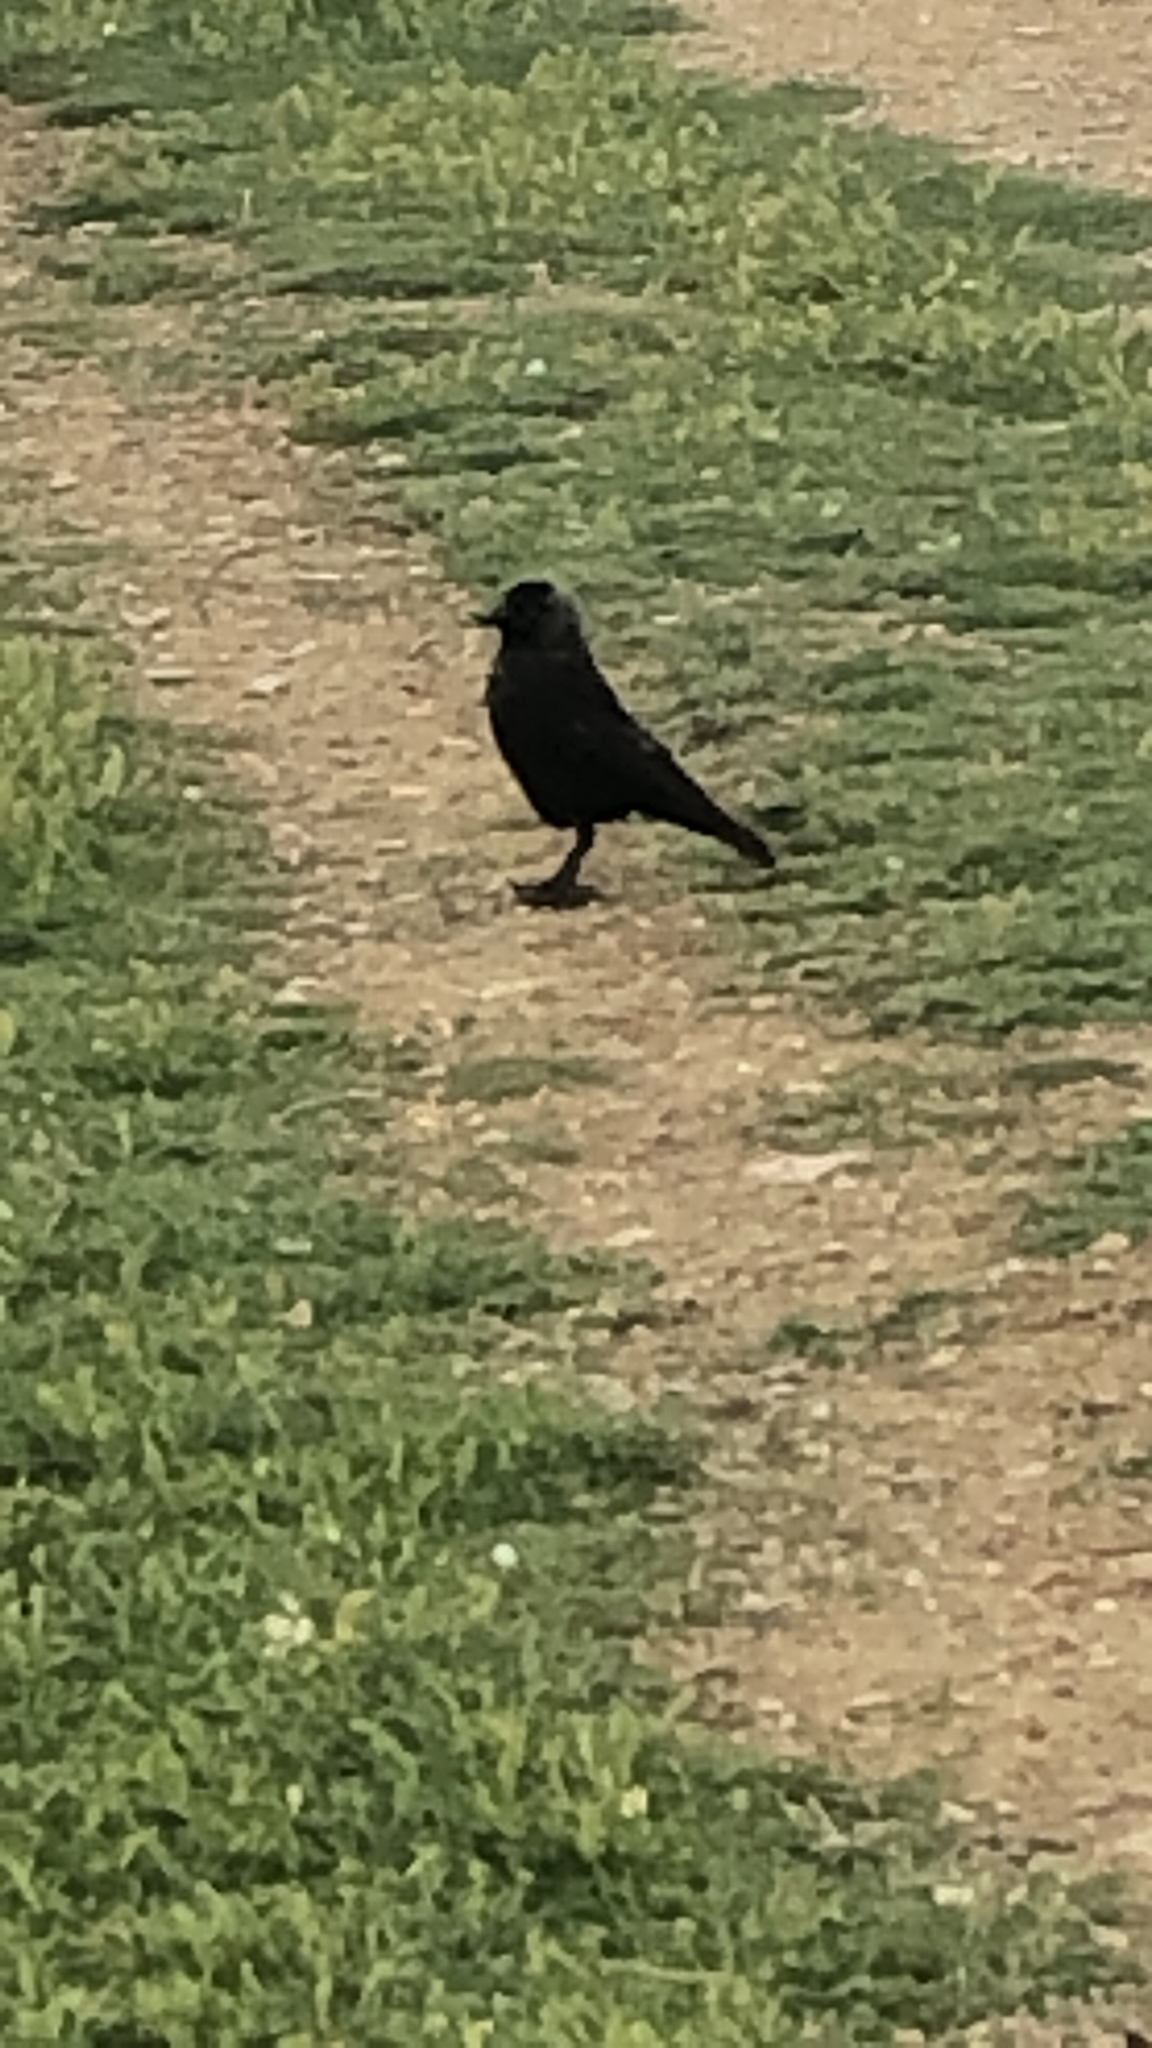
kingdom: Animalia
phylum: Chordata
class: Aves
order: Passeriformes
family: Corvidae
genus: Coloeus
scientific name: Coloeus monedula
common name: Western jackdaw
